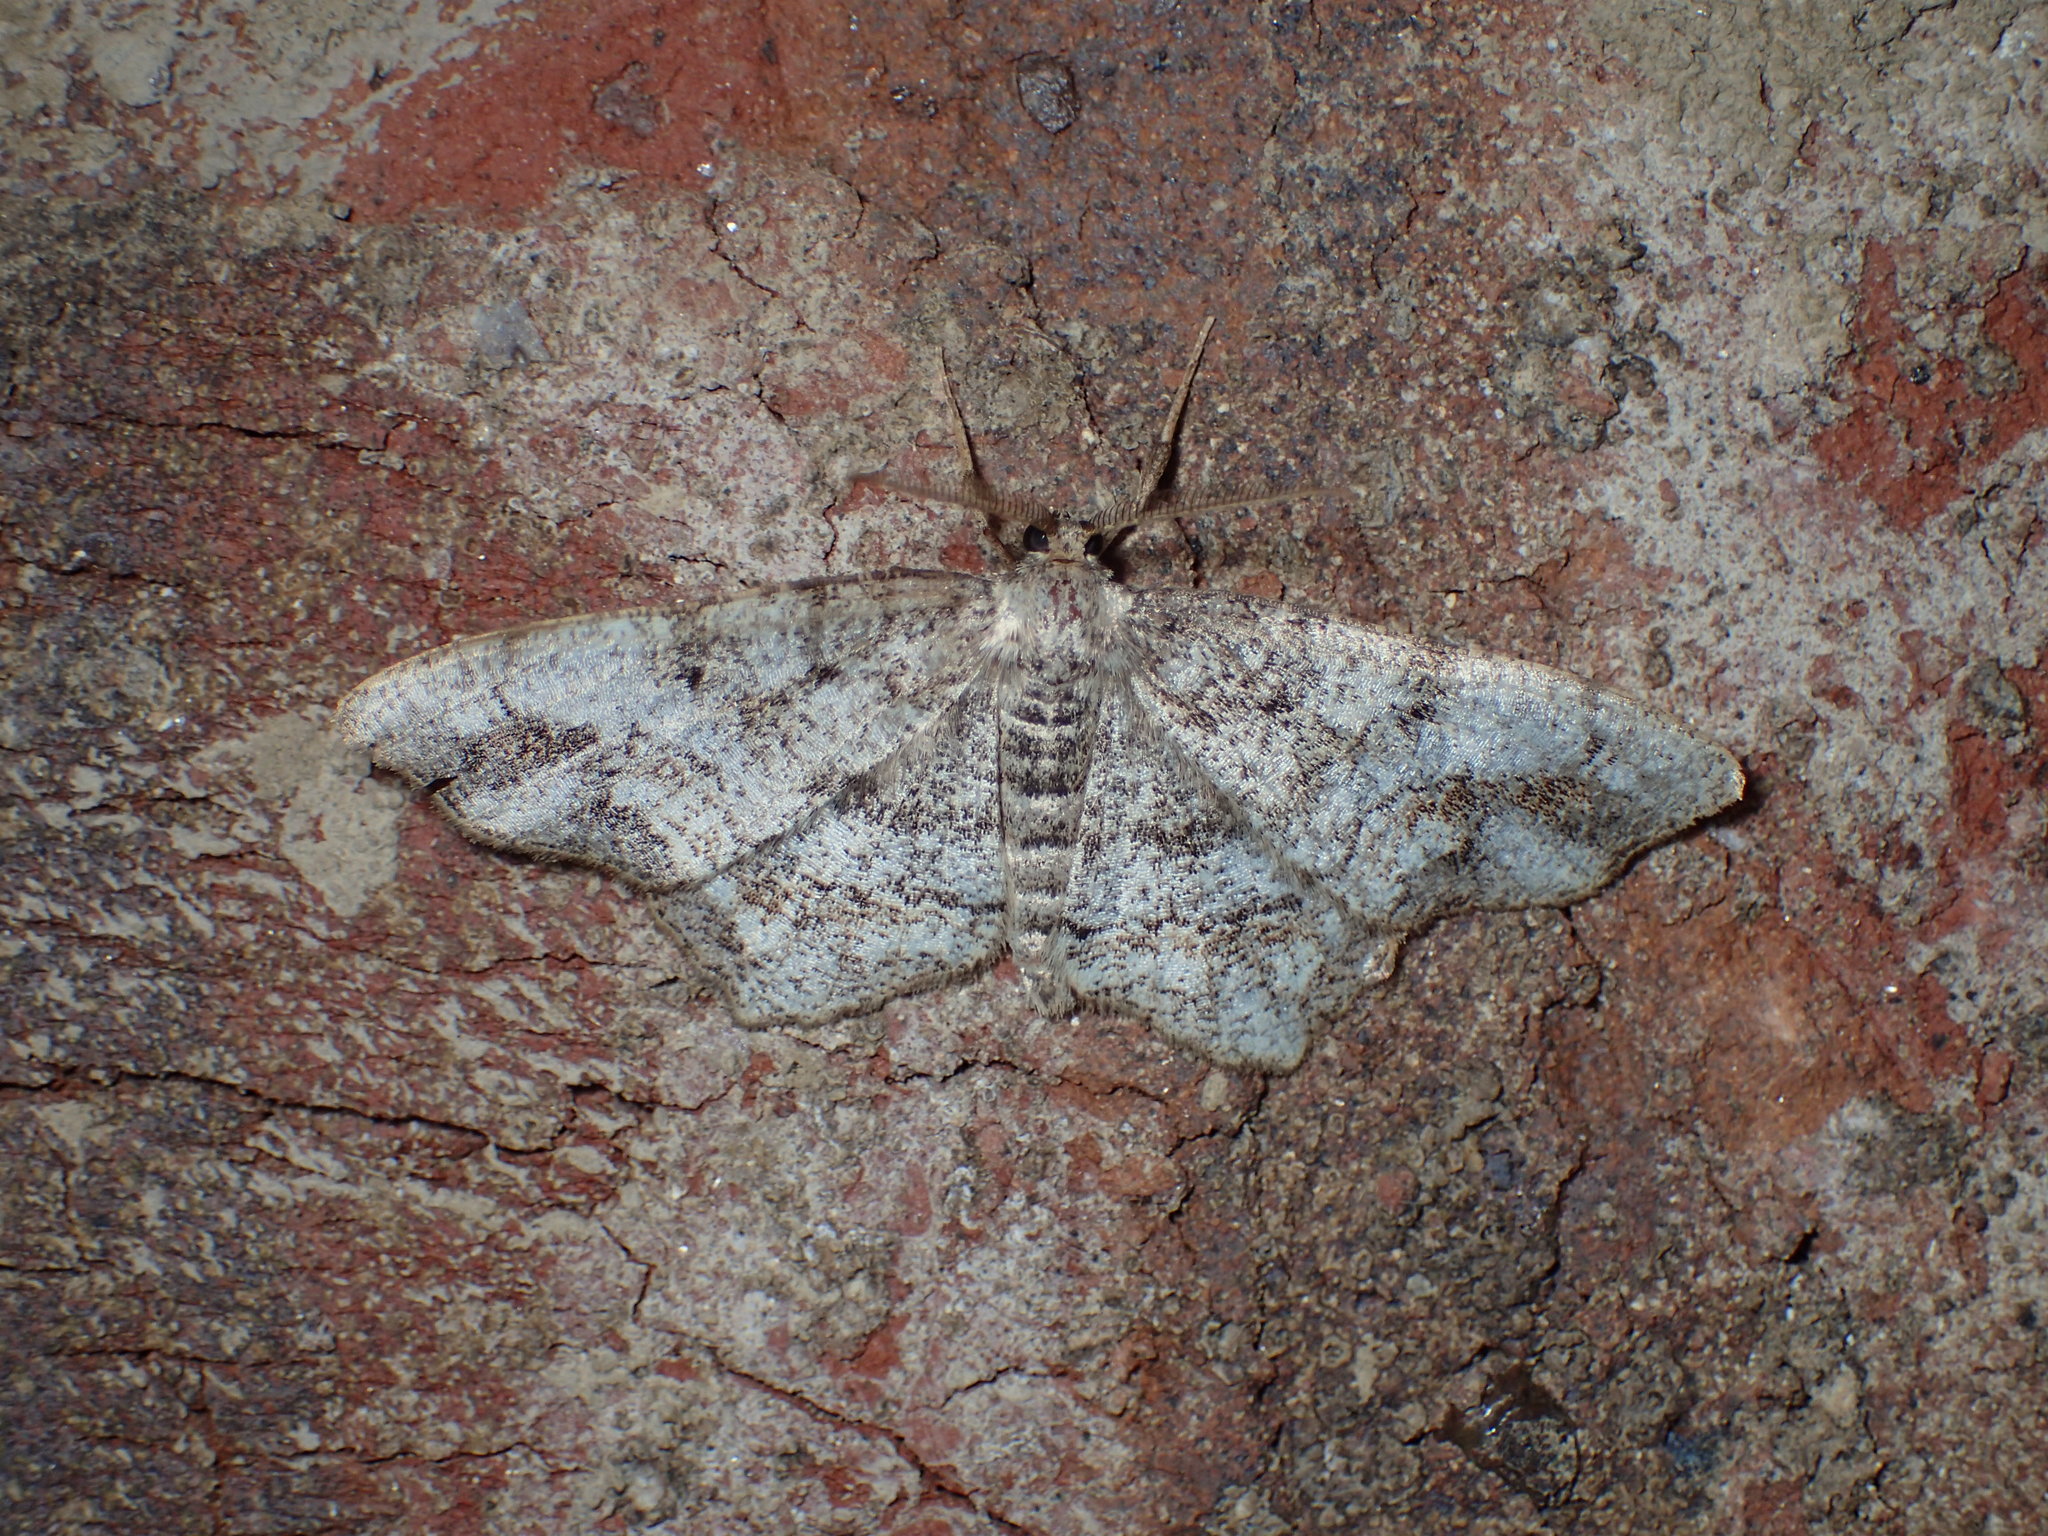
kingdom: Animalia
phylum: Arthropoda
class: Insecta
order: Lepidoptera
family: Geometridae
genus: Hypagyrtis
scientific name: Hypagyrtis unipunctata
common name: One-spotted variant
